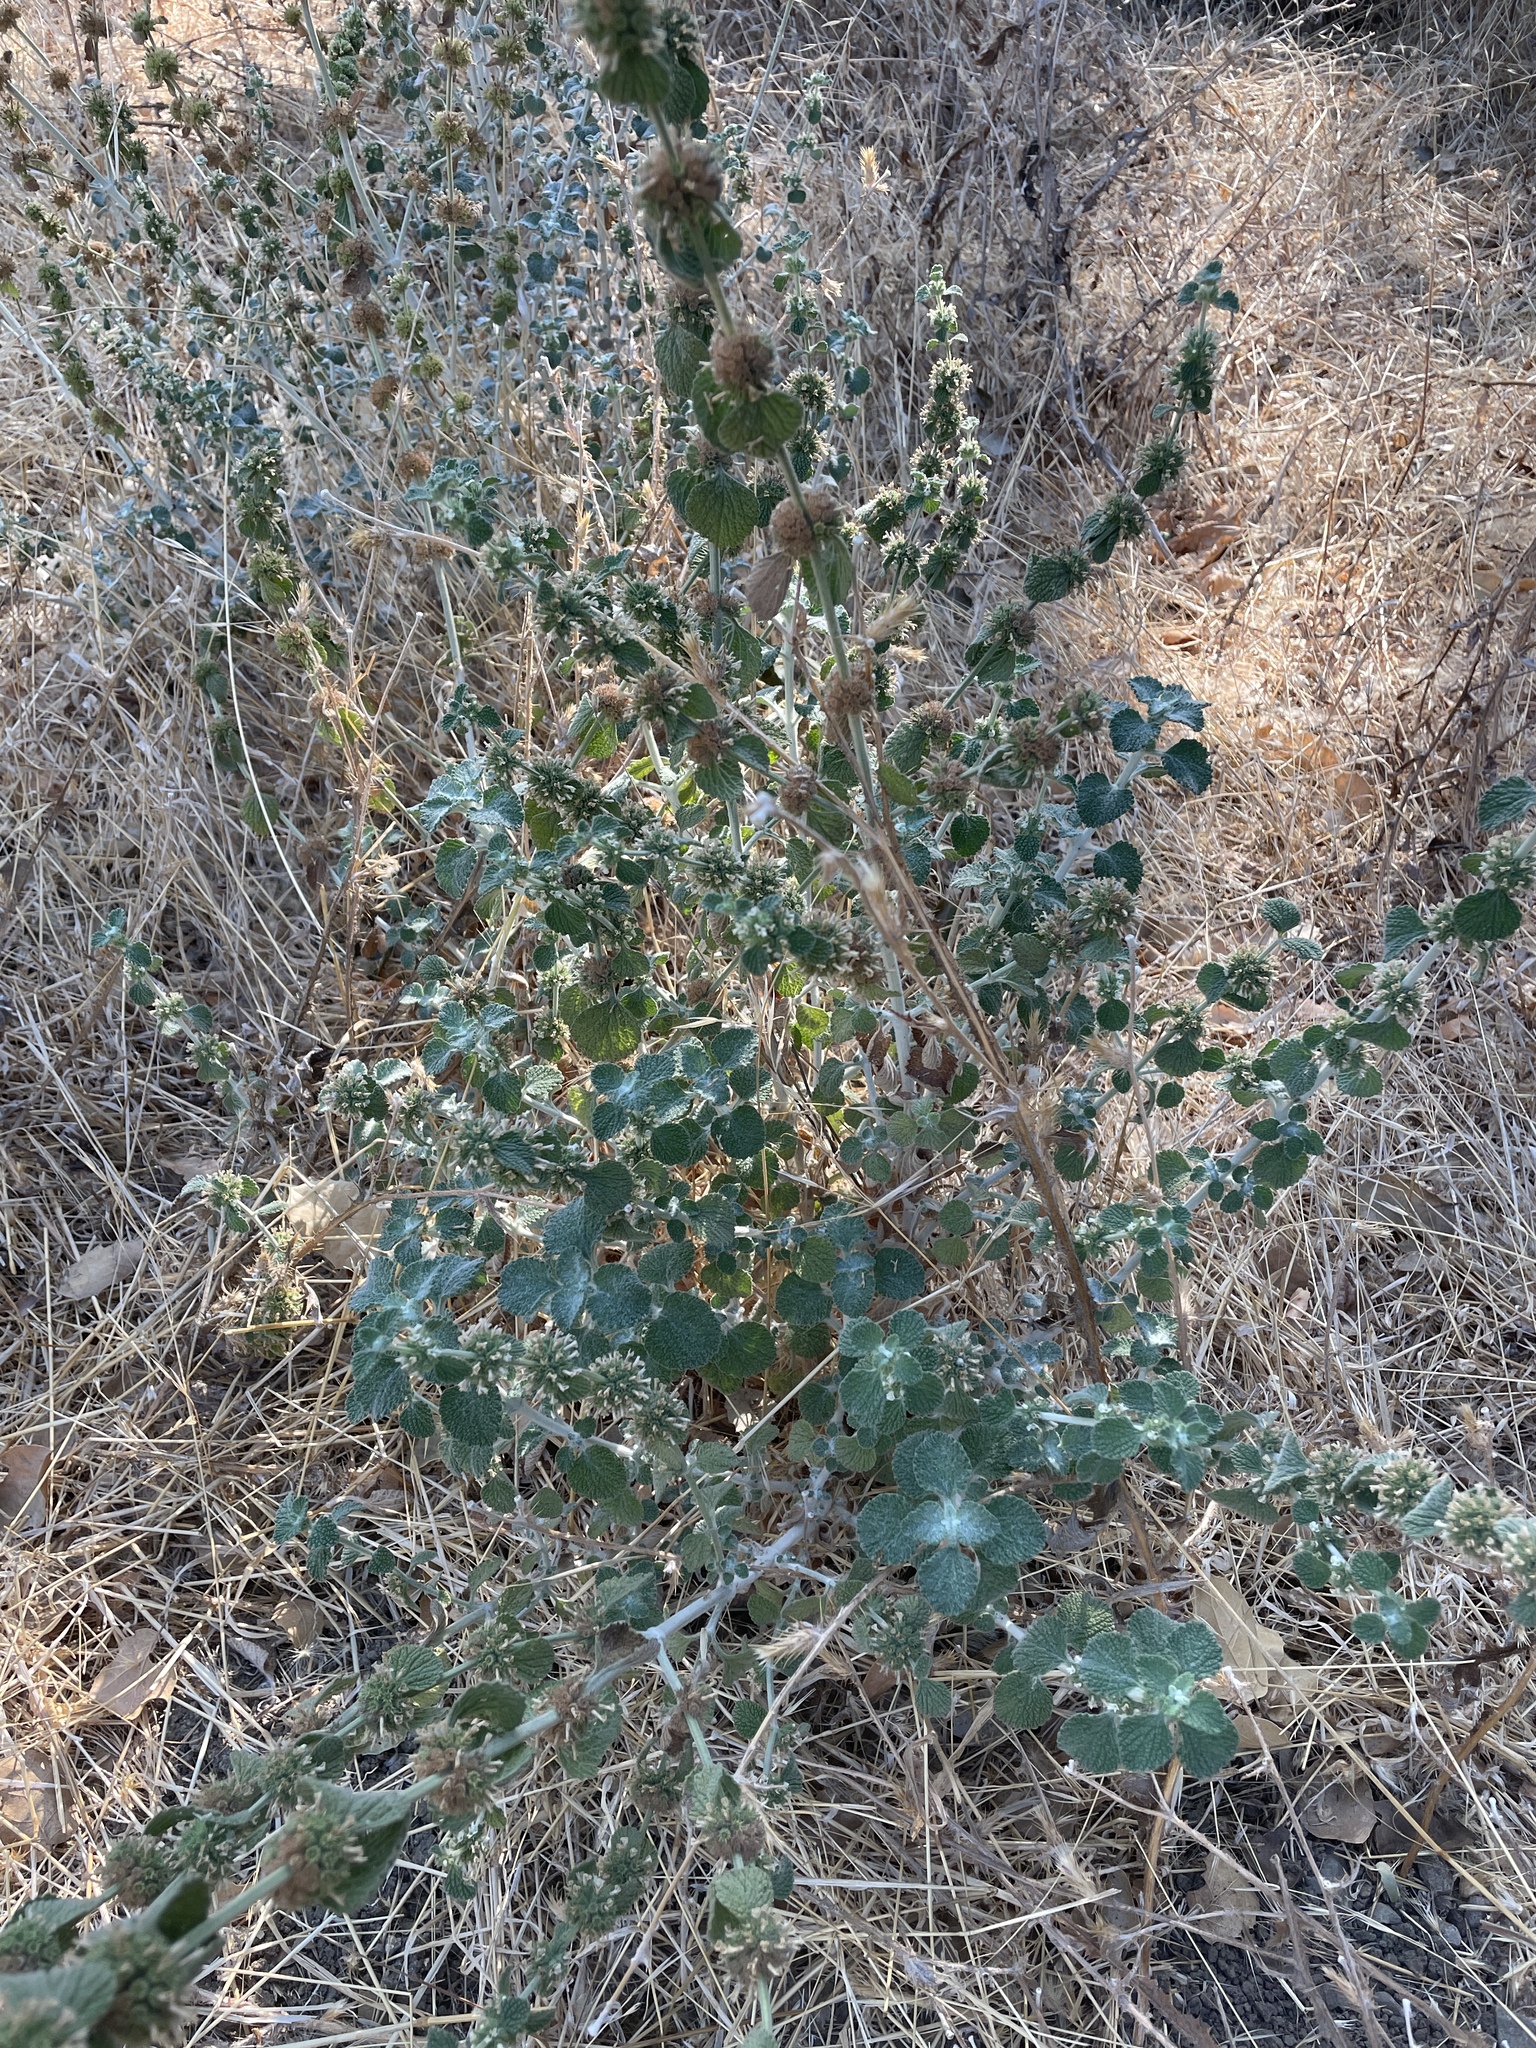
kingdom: Plantae
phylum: Tracheophyta
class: Magnoliopsida
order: Lamiales
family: Lamiaceae
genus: Marrubium
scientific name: Marrubium vulgare
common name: Horehound
